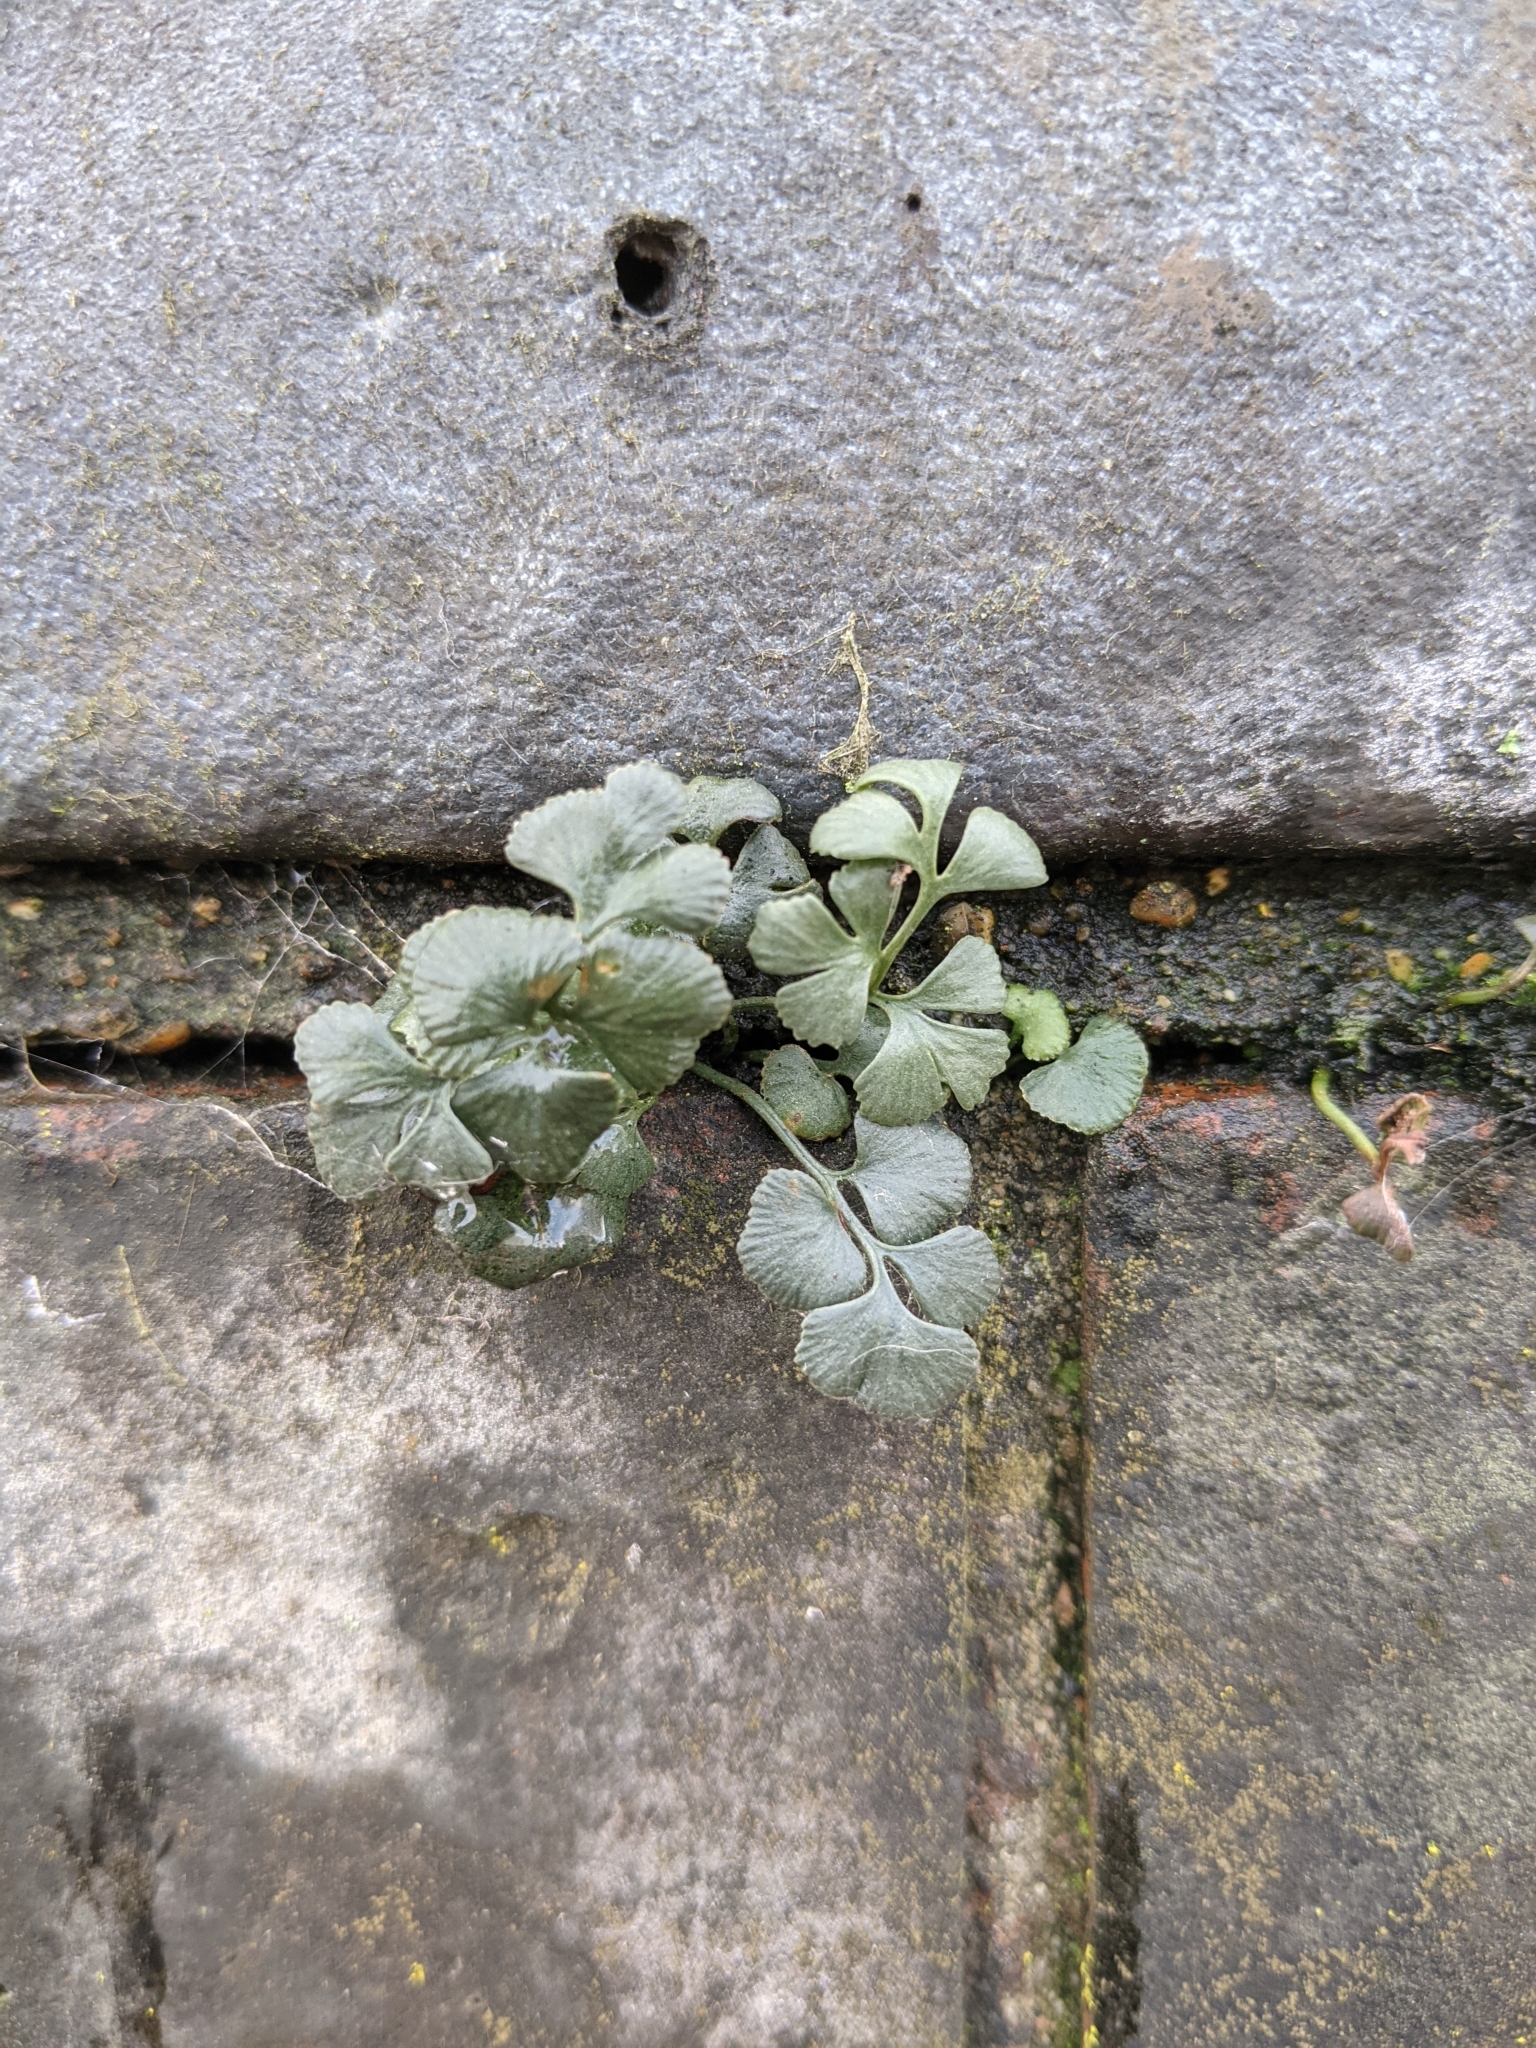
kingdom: Plantae
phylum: Tracheophyta
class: Polypodiopsida
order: Polypodiales
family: Aspleniaceae
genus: Asplenium
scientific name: Asplenium ruta-muraria
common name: Wall-rue
